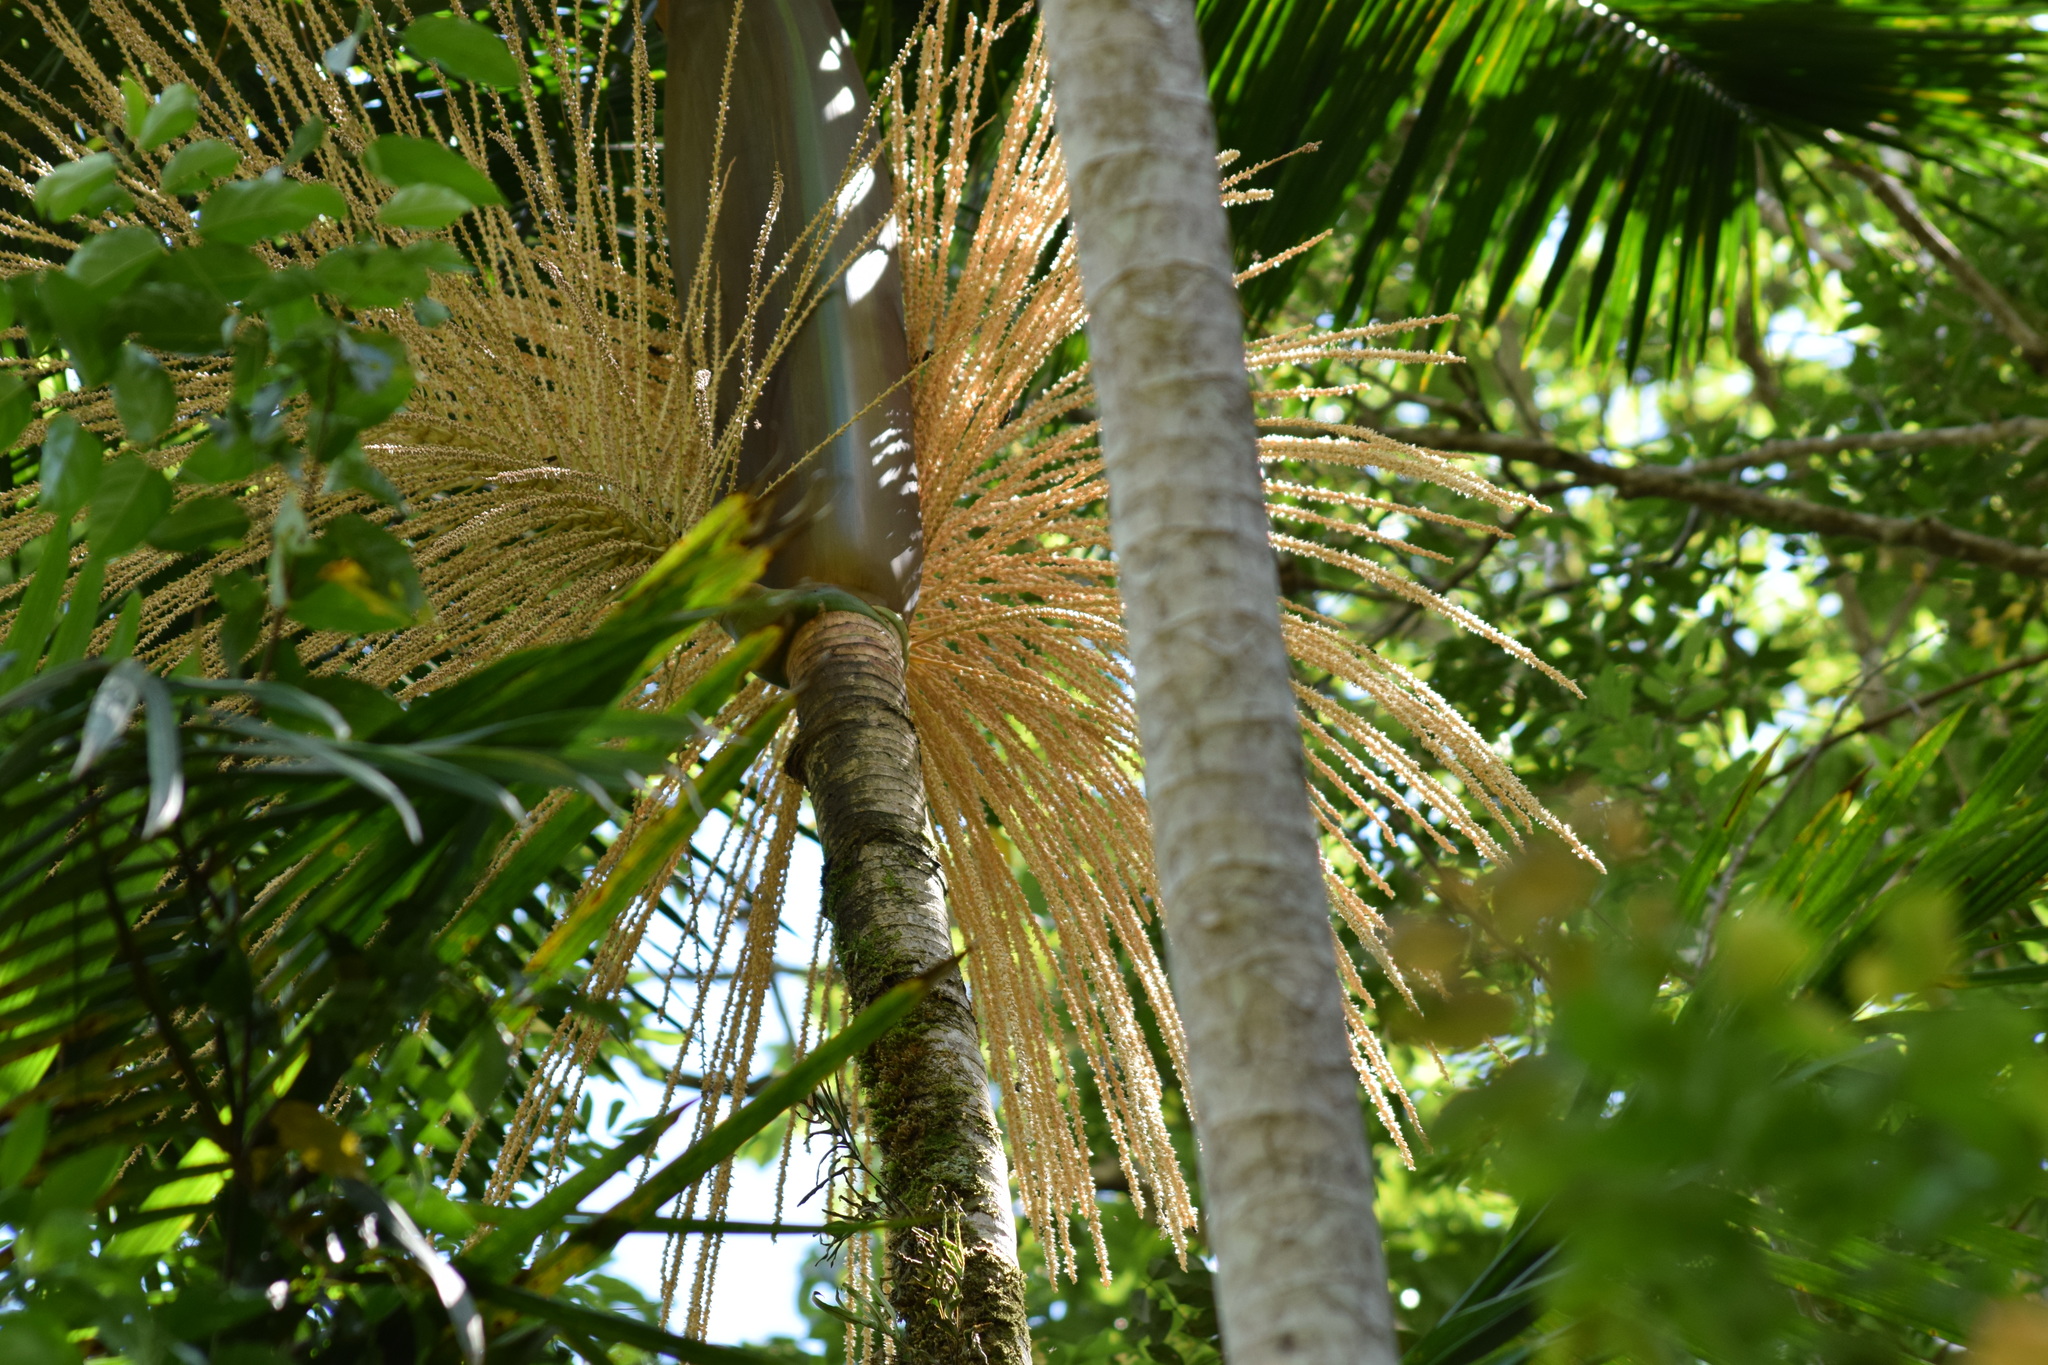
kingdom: Plantae
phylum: Tracheophyta
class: Liliopsida
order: Arecales
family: Arecaceae
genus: Euterpe
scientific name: Euterpe edulis
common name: Assai palm
